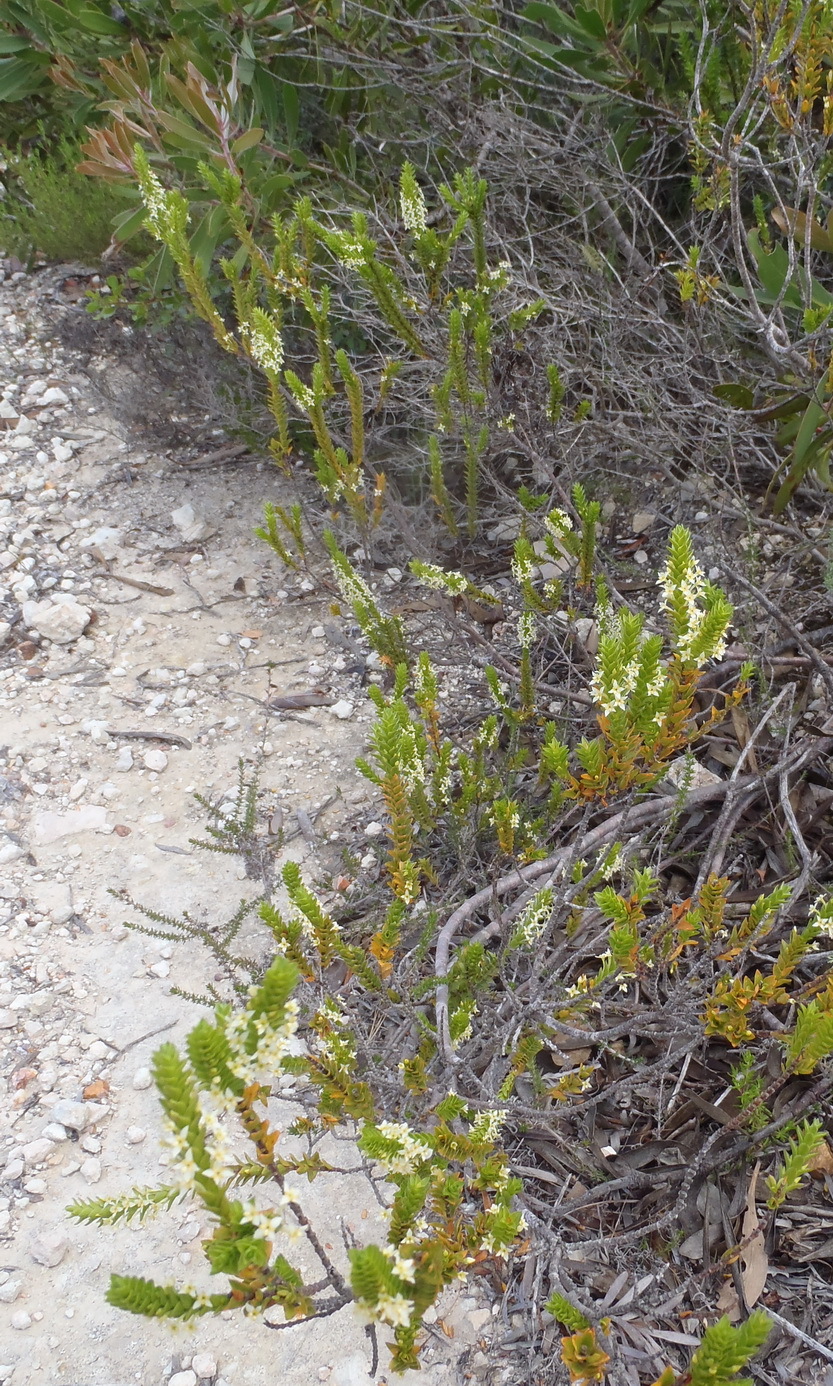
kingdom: Plantae
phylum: Tracheophyta
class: Magnoliopsida
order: Malvales
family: Thymelaeaceae
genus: Struthiola
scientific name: Struthiola striata
